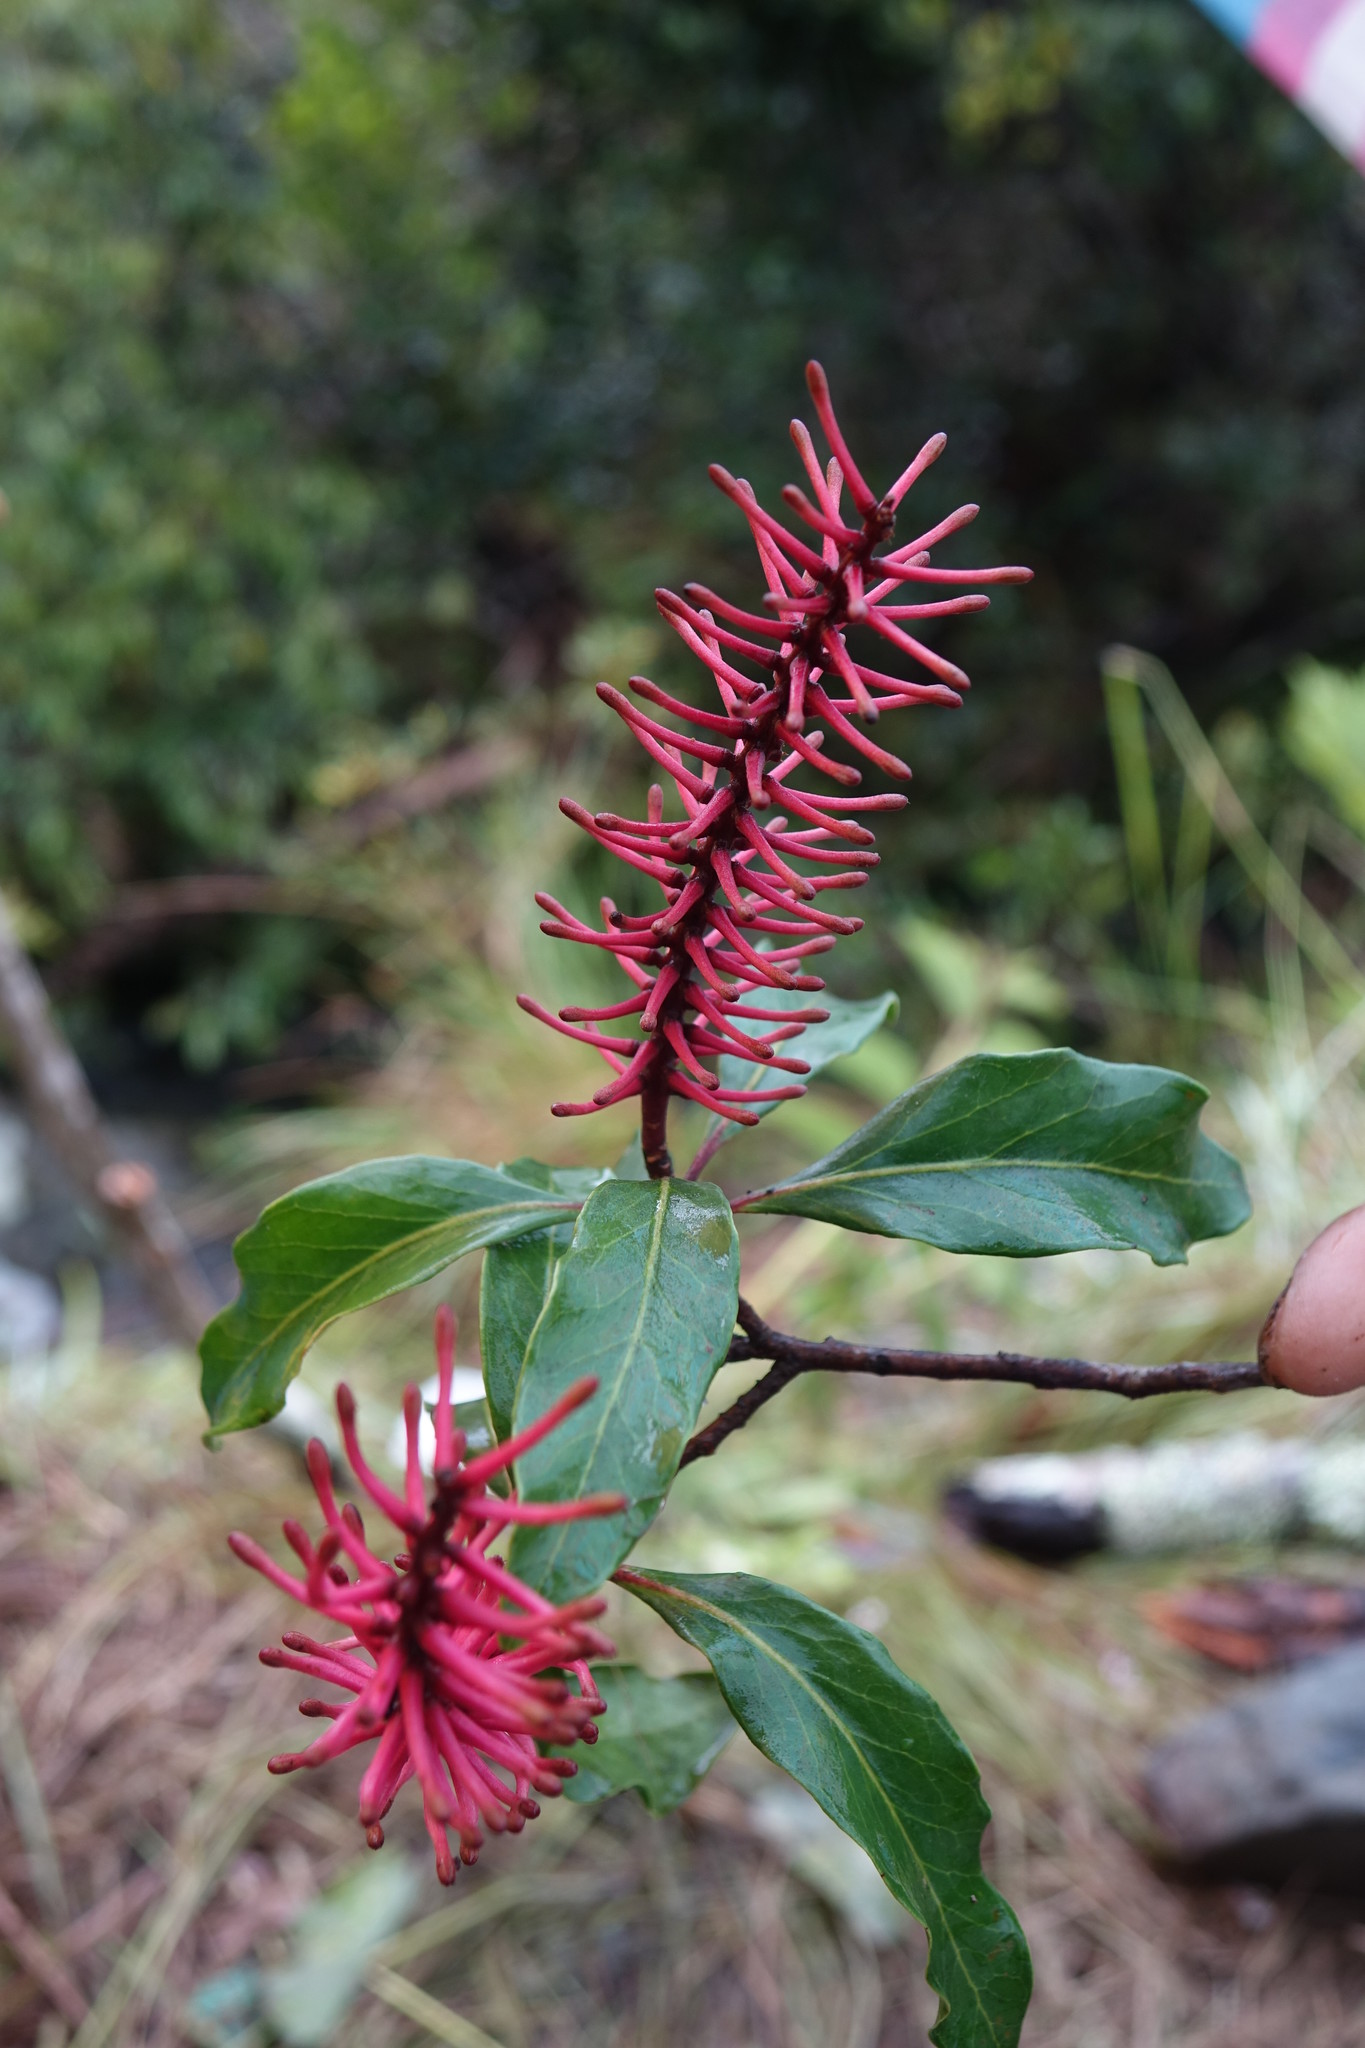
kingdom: Plantae
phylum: Tracheophyta
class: Magnoliopsida
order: Proteales
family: Proteaceae
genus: Faurea
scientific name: Faurea forficuliflora
